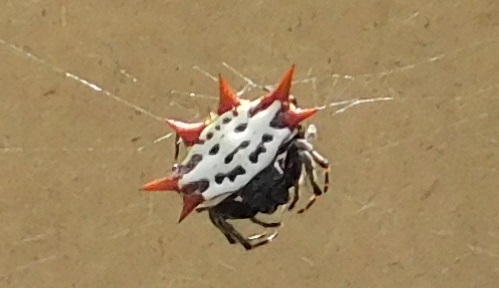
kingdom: Animalia
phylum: Arthropoda
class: Arachnida
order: Araneae
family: Araneidae
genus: Gasteracantha
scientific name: Gasteracantha cancriformis
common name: Orb weavers
